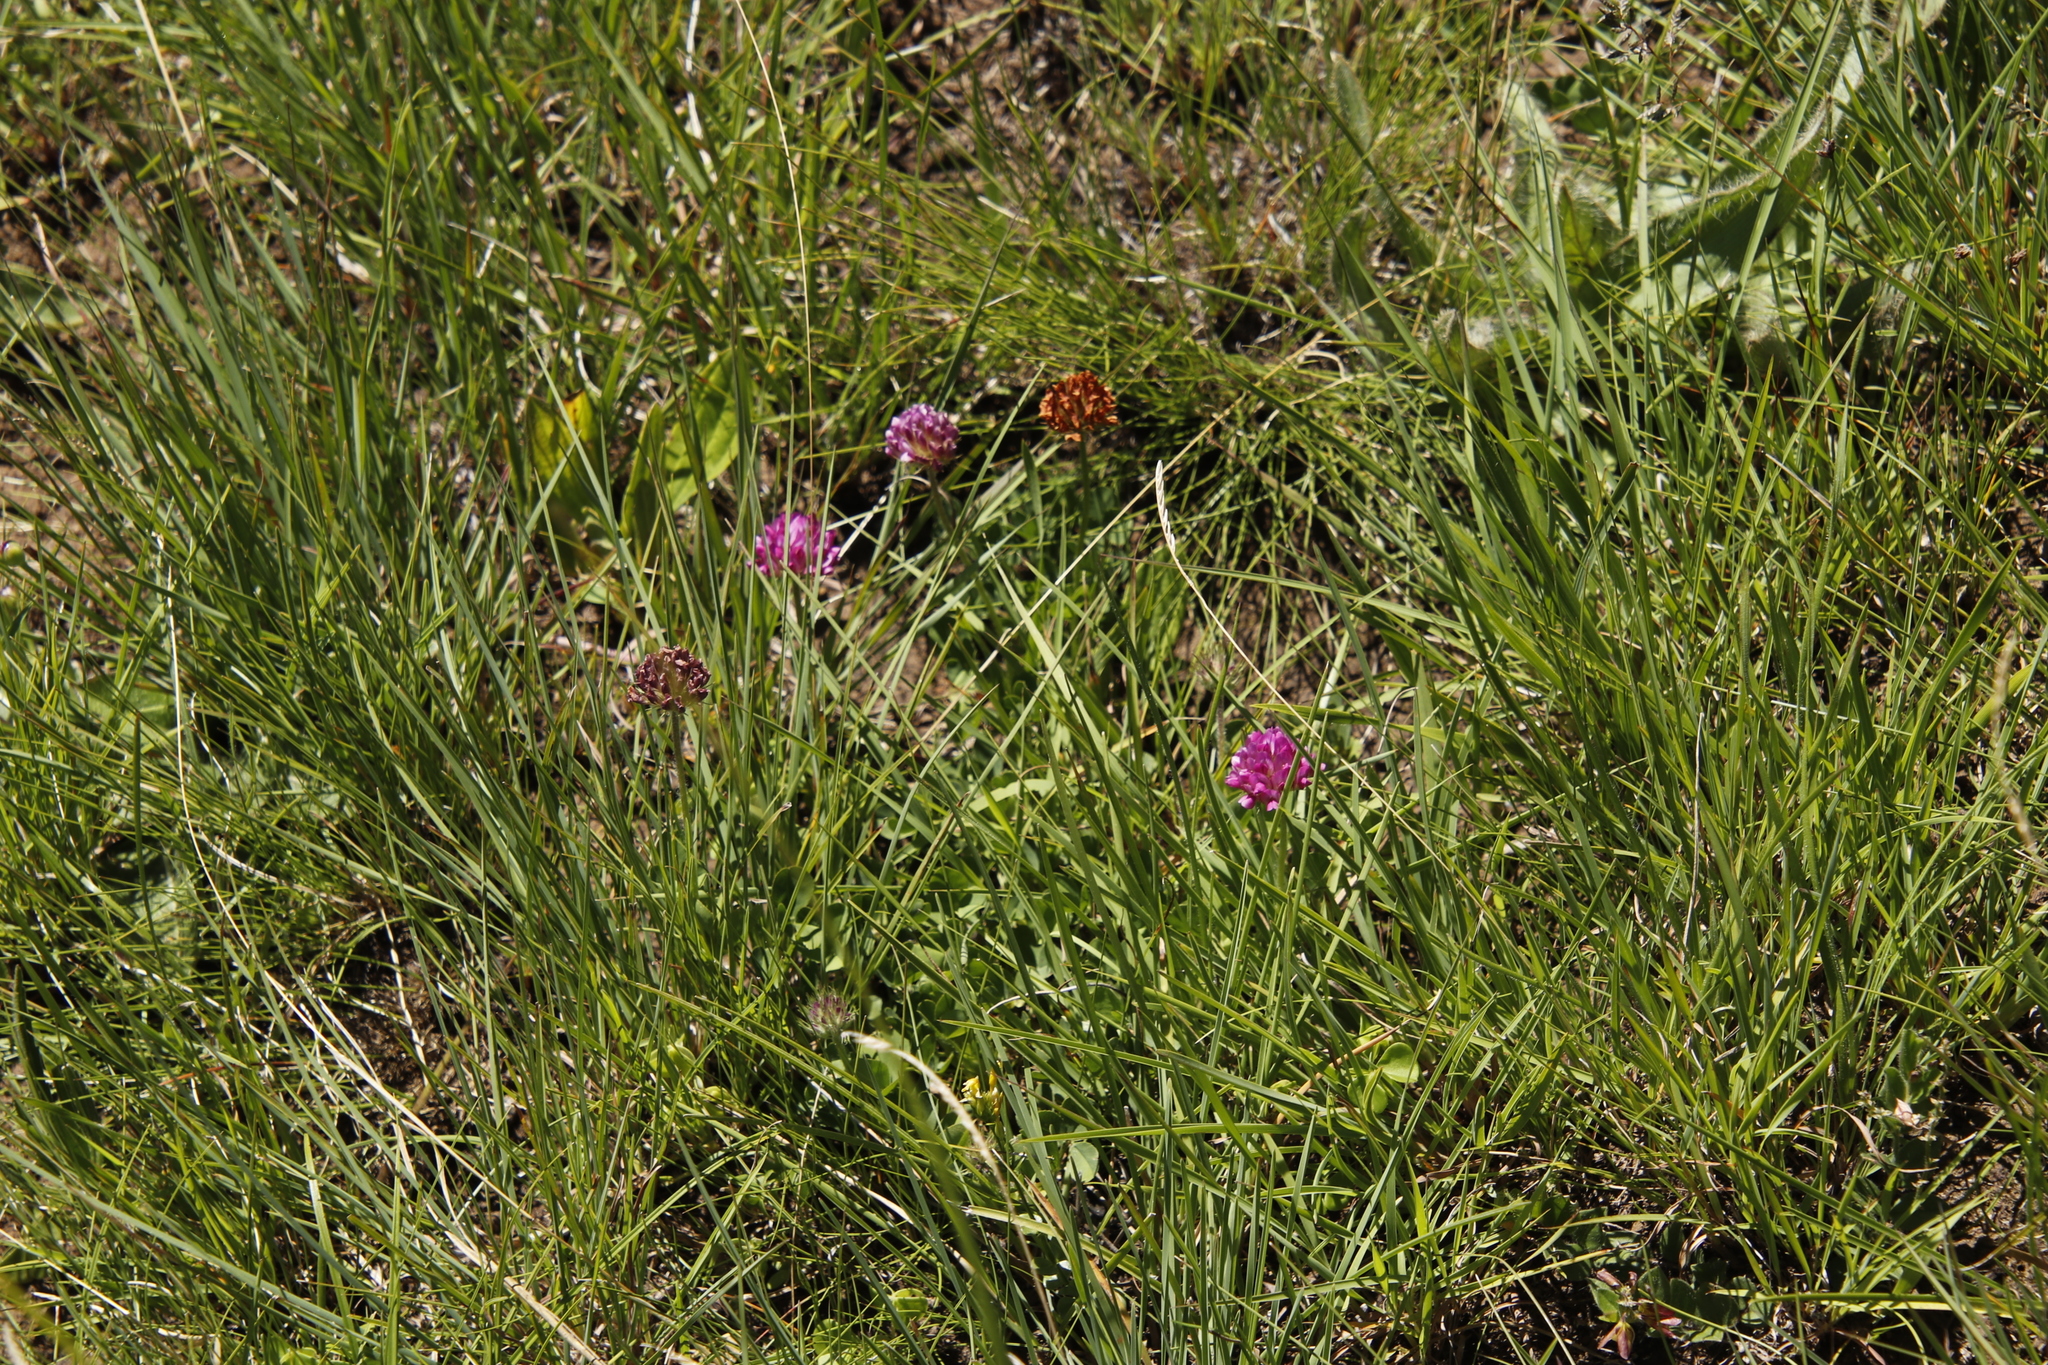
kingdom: Plantae
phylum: Tracheophyta
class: Magnoliopsida
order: Fabales
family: Fabaceae
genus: Trifolium
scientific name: Trifolium burchellianum
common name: Burchell's clover
